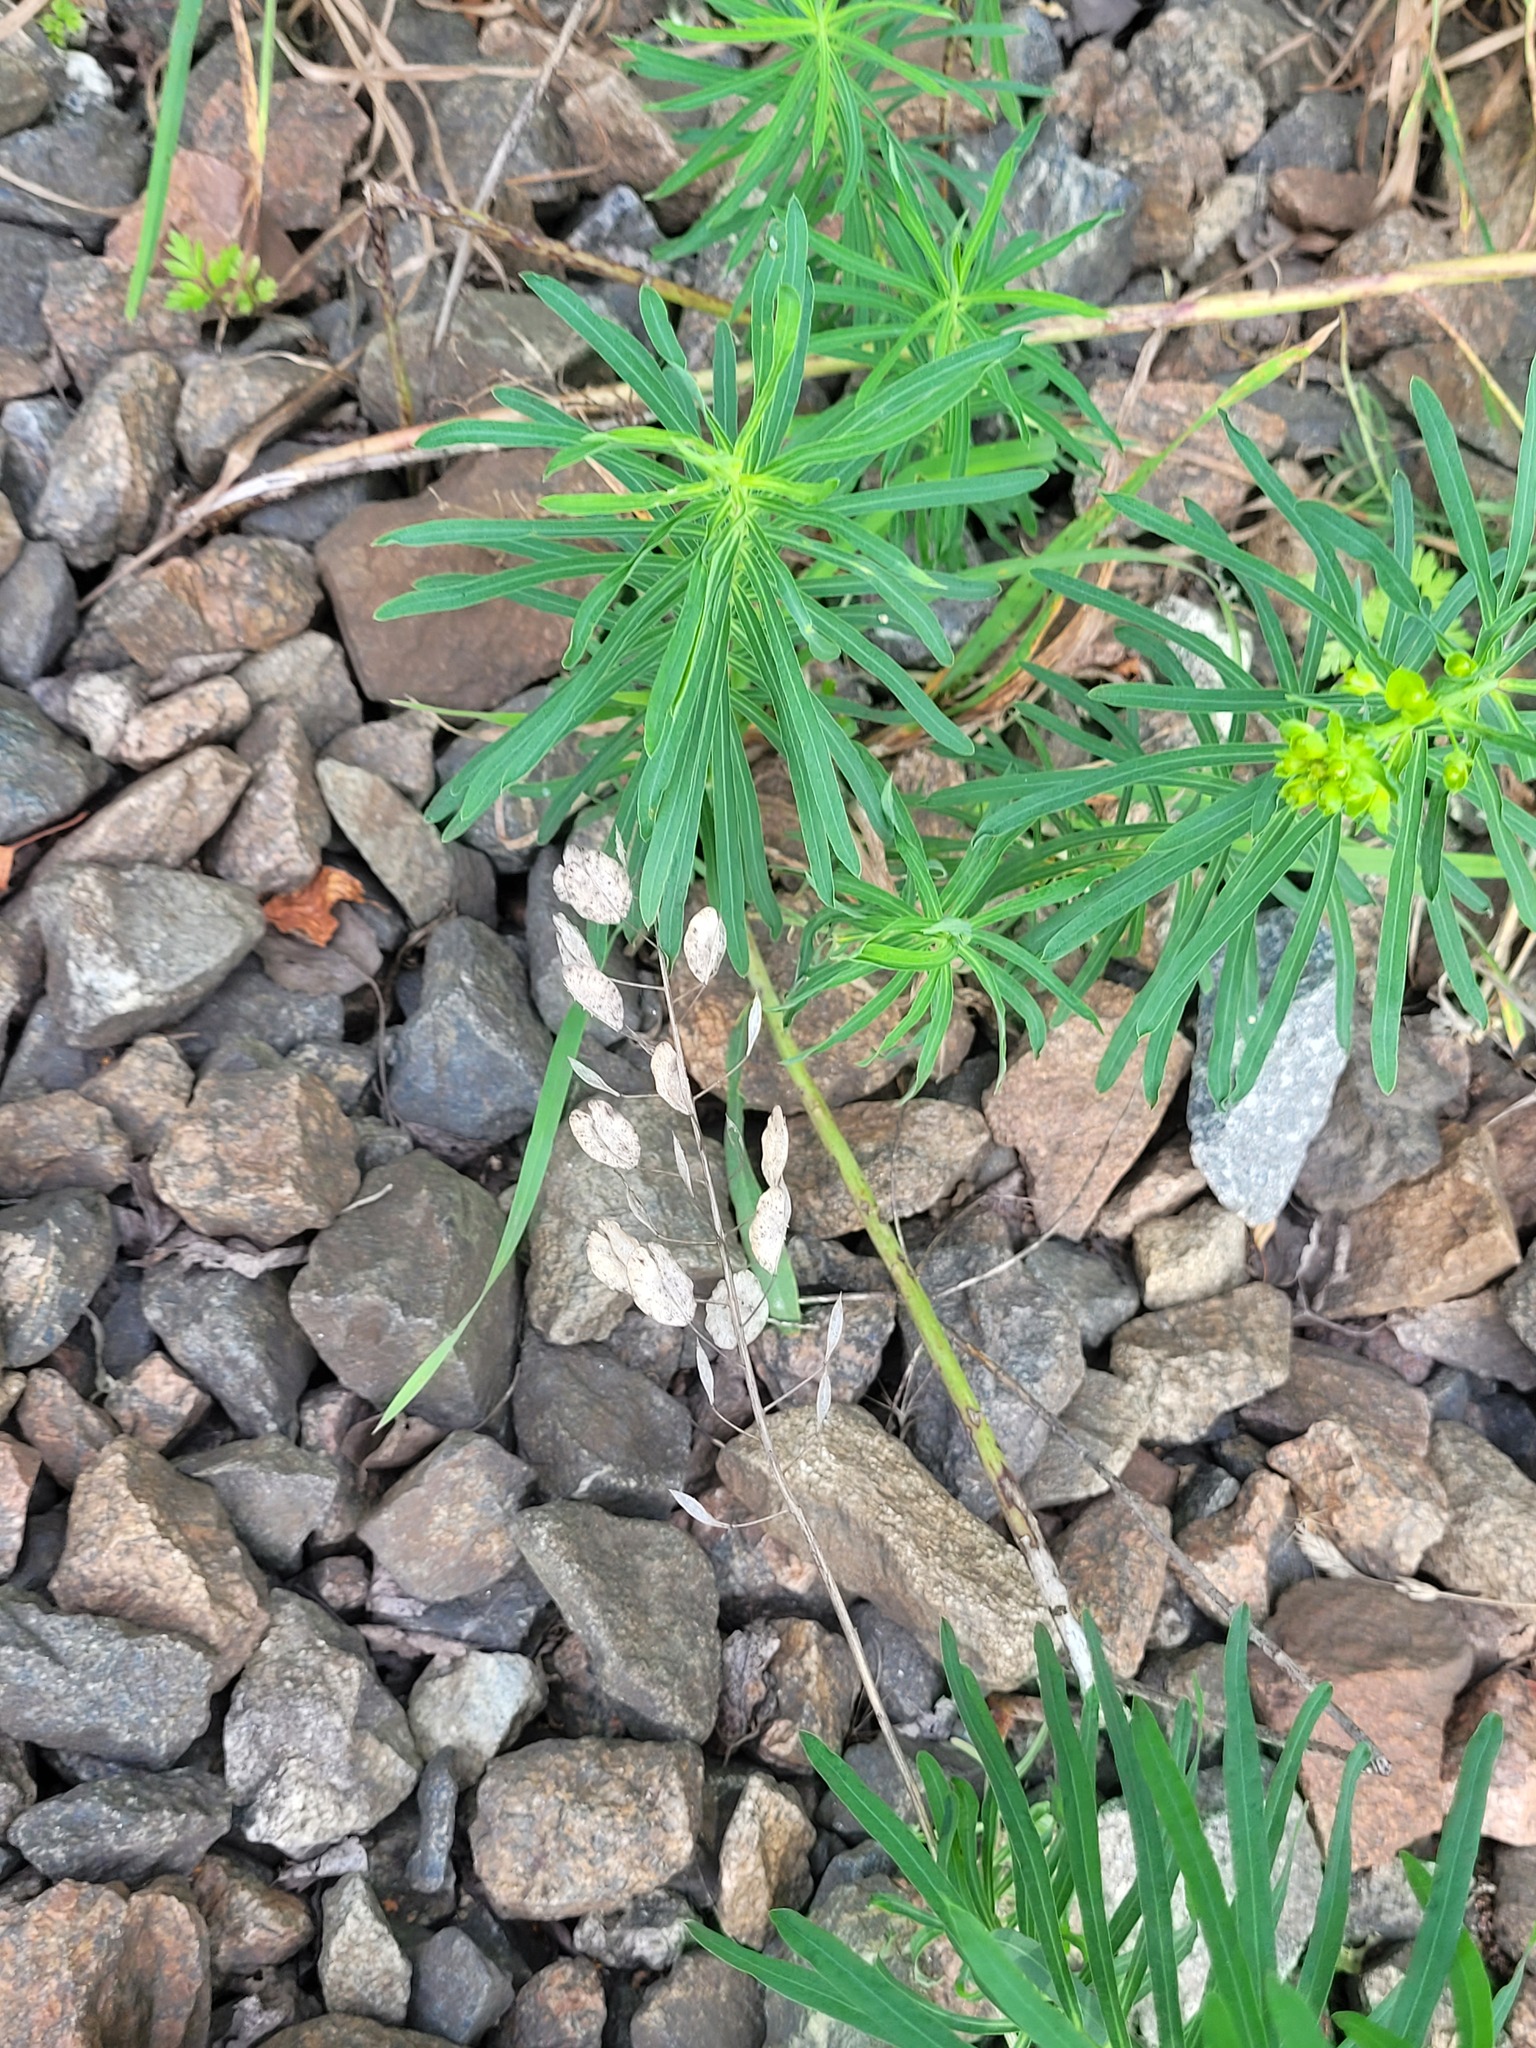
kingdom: Plantae
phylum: Tracheophyta
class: Magnoliopsida
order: Brassicales
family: Brassicaceae
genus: Thlaspi
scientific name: Thlaspi arvense
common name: Field pennycress
